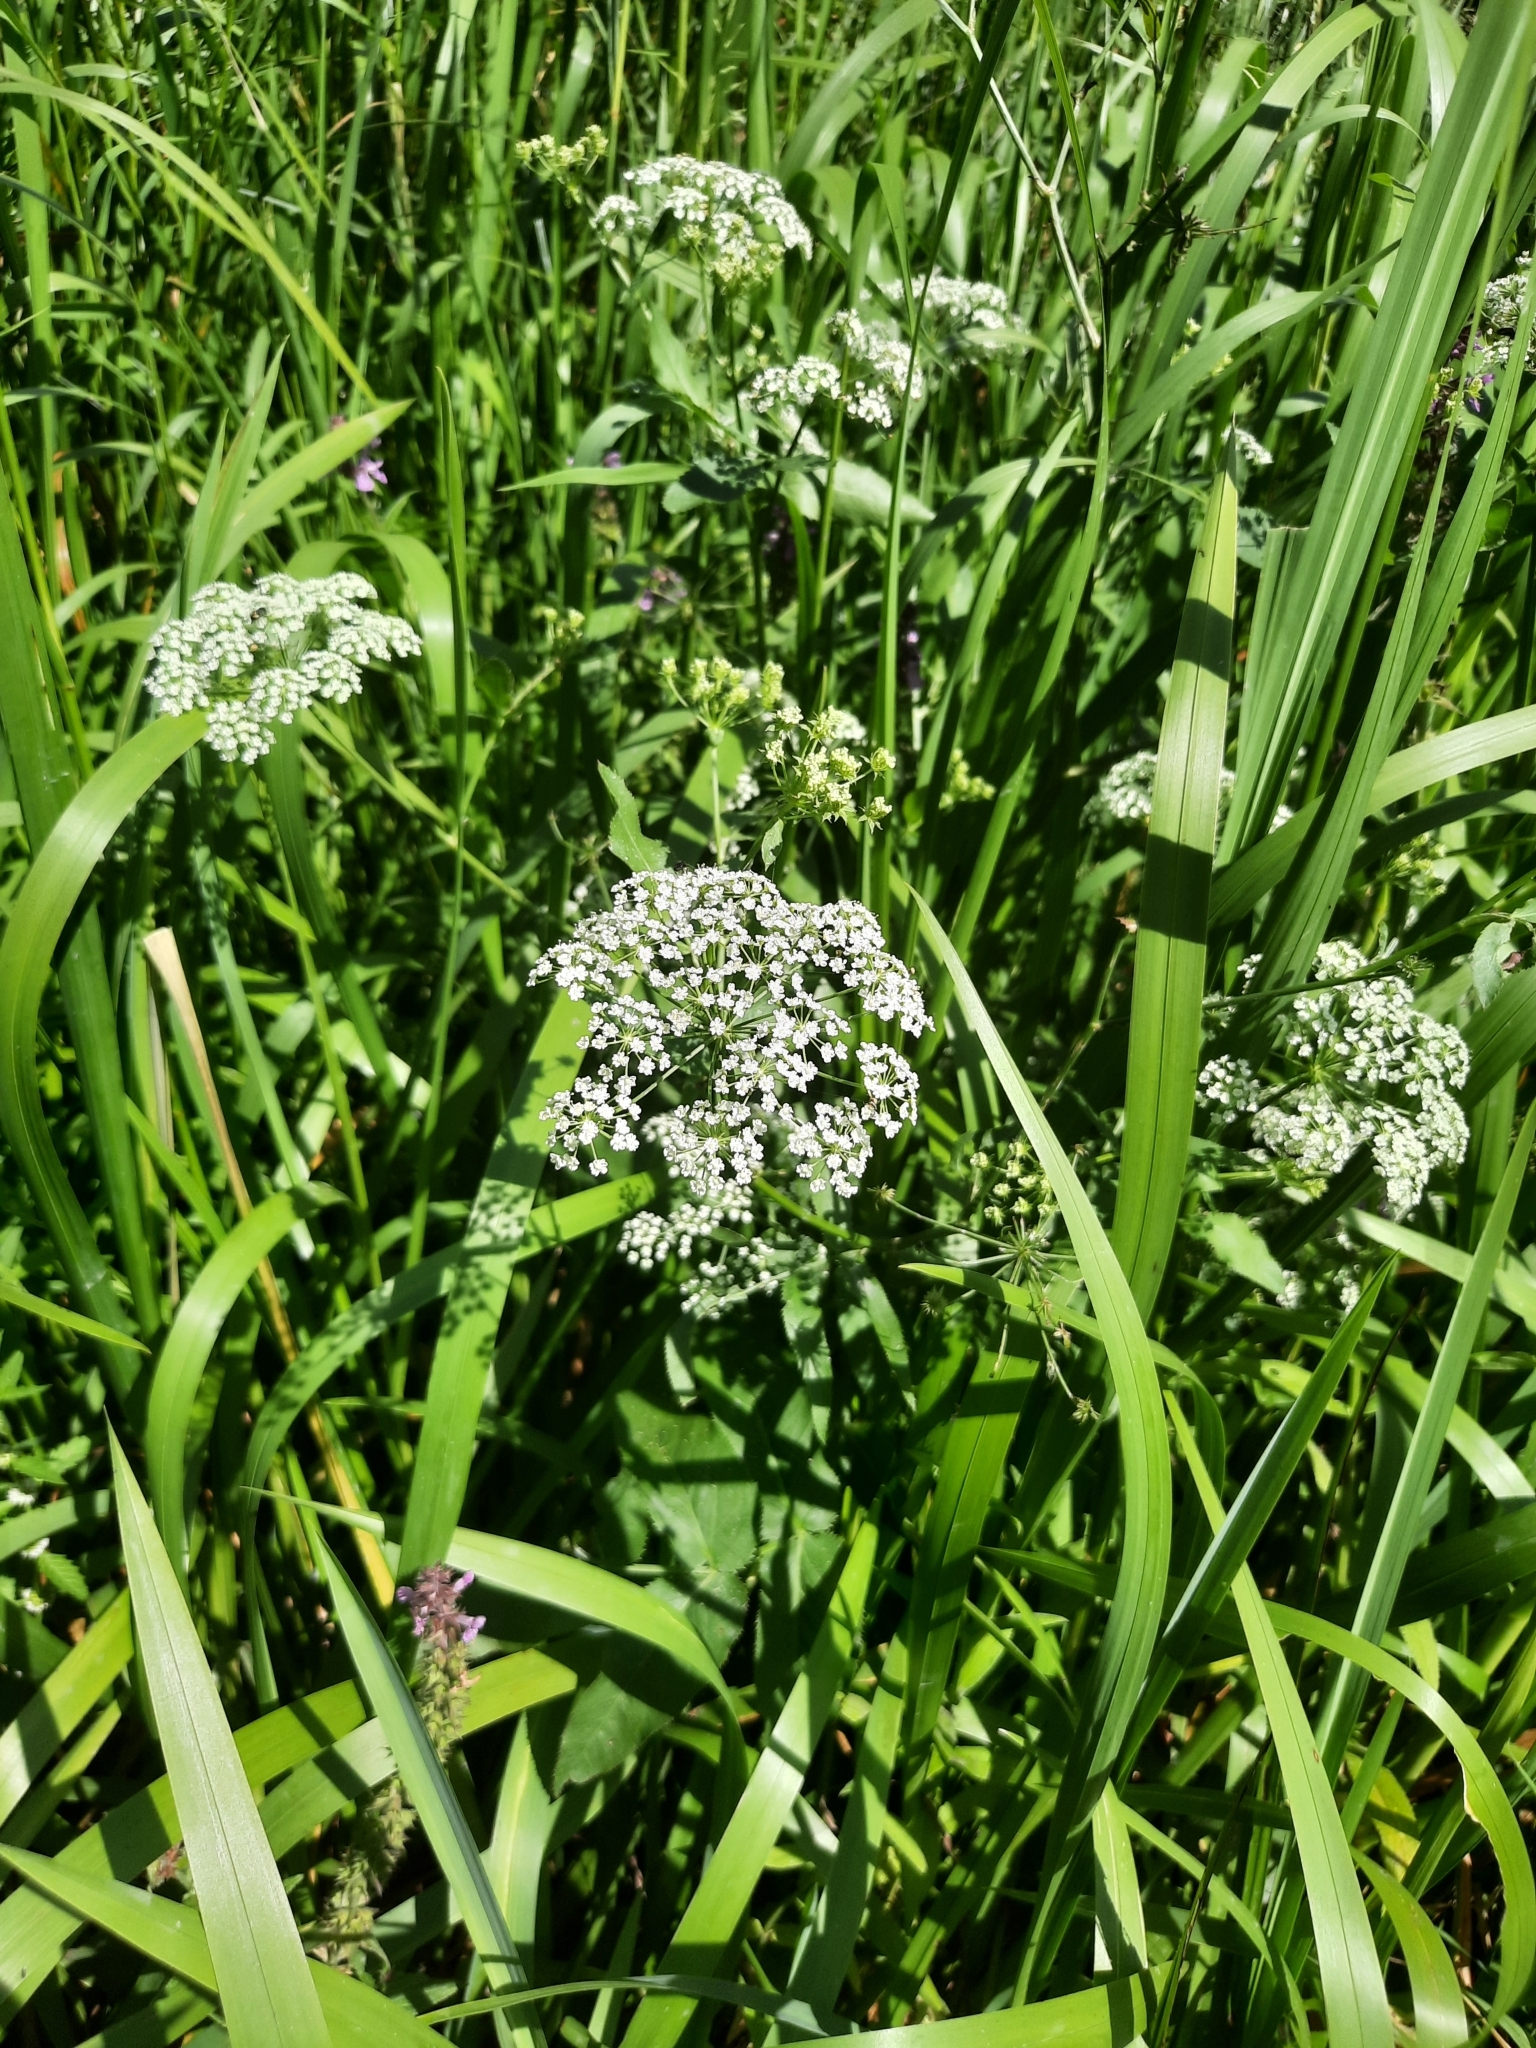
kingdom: Plantae
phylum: Tracheophyta
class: Magnoliopsida
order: Apiales
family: Apiaceae
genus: Sium
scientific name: Sium latifolium
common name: Greater water-parsnip
